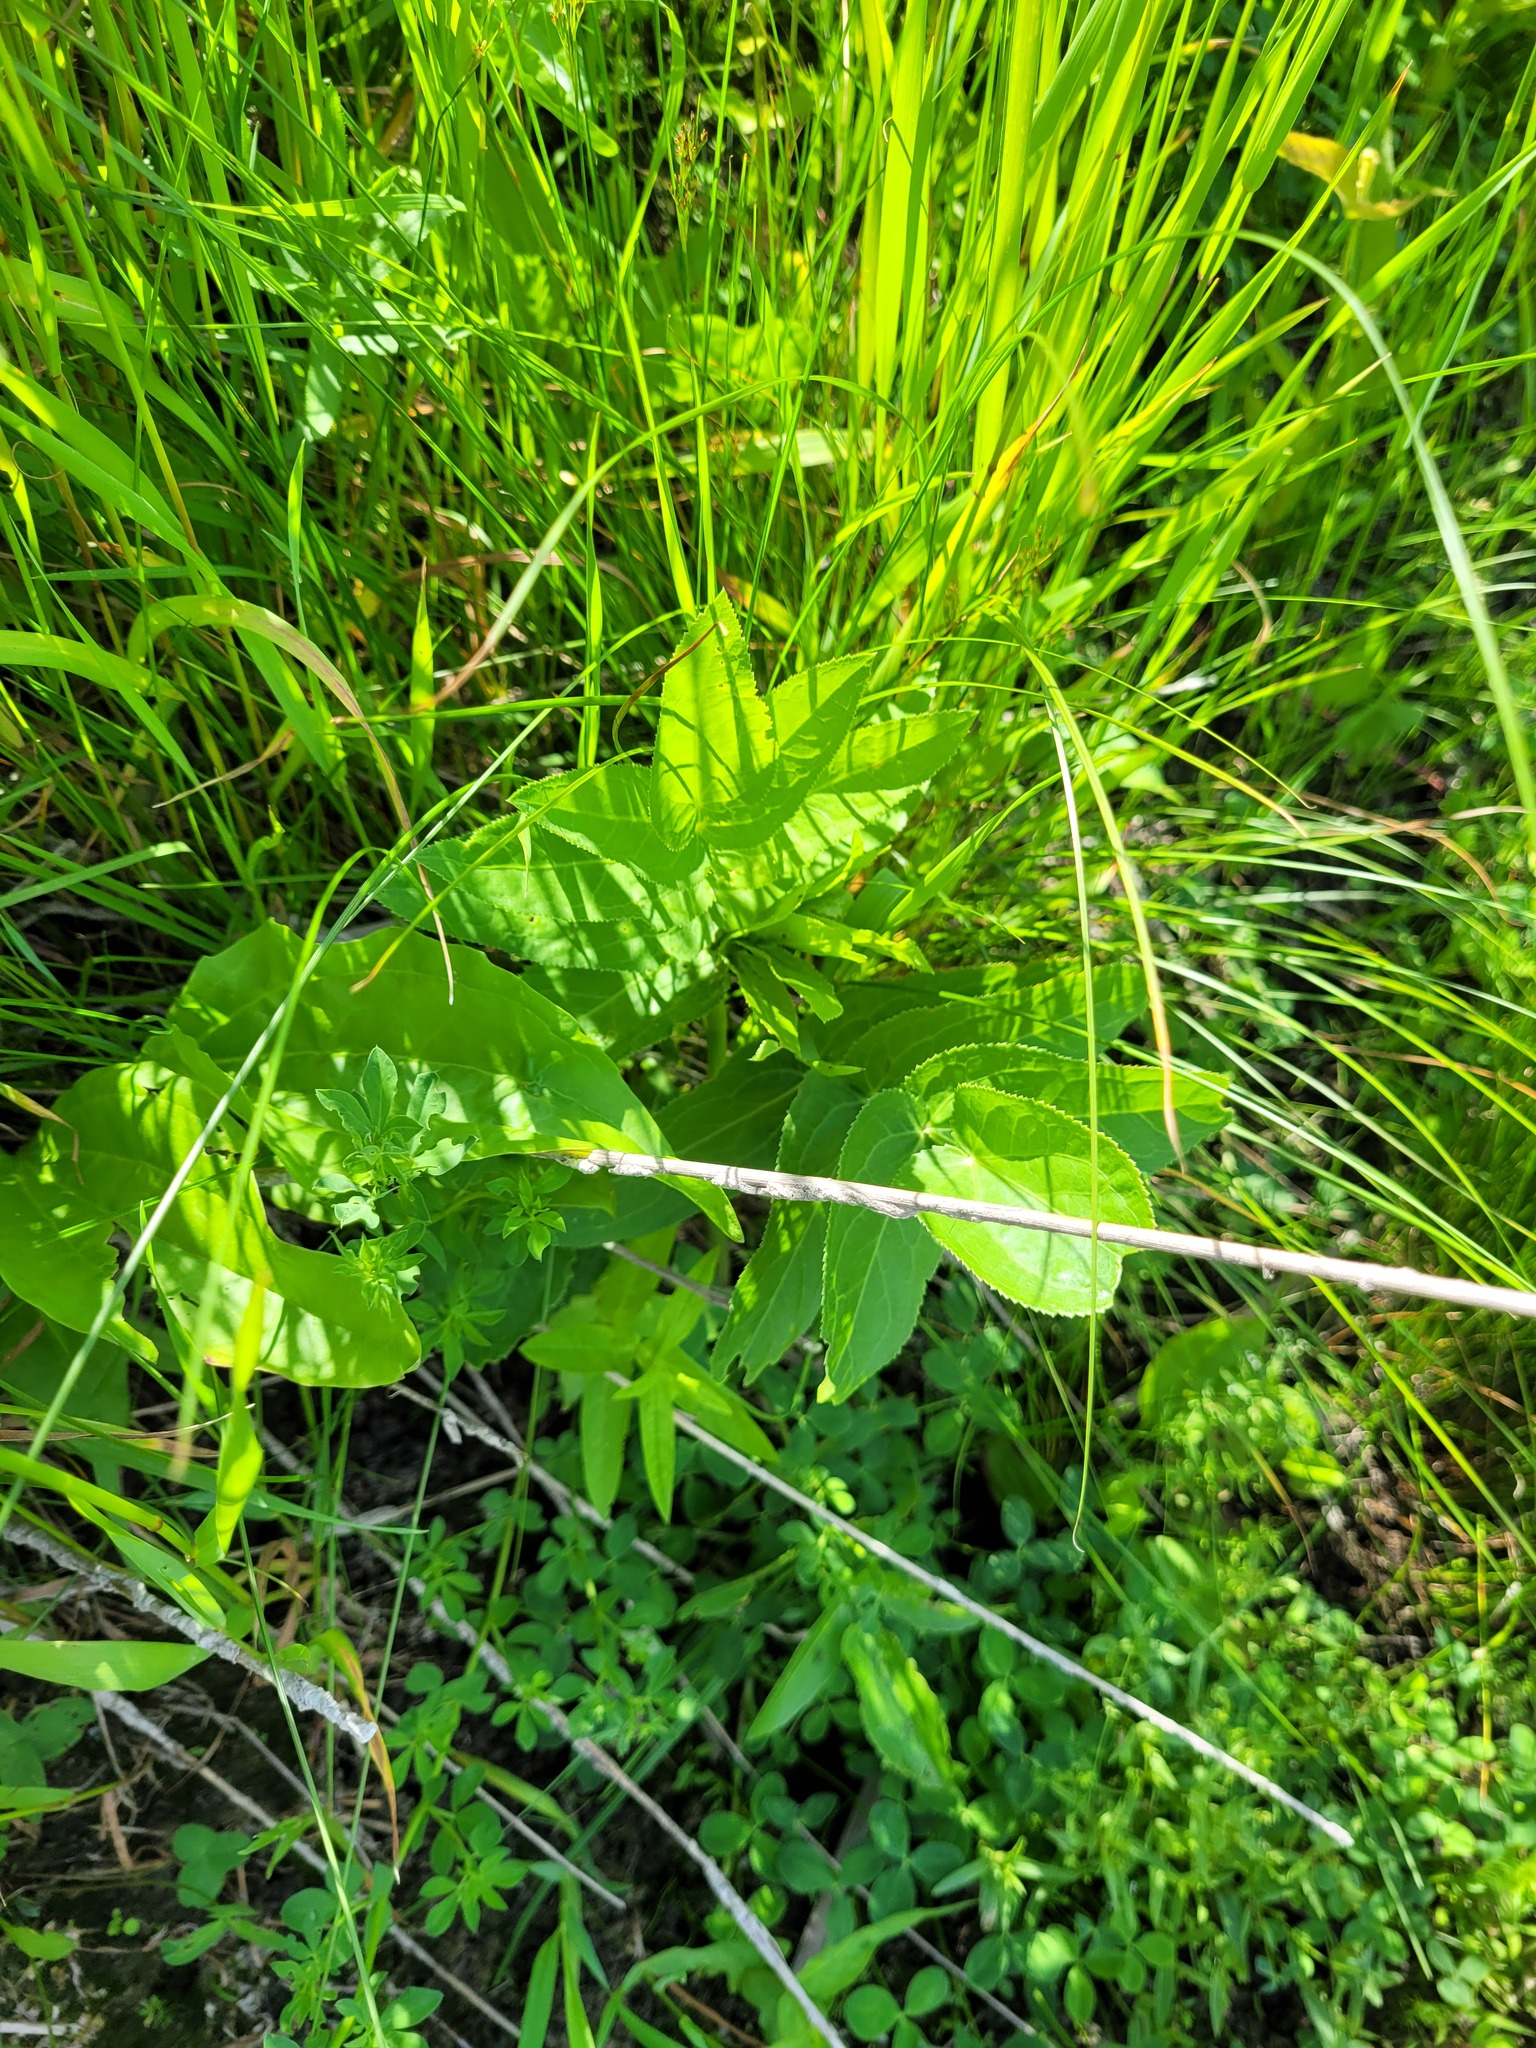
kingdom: Plantae
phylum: Tracheophyta
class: Magnoliopsida
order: Apiales
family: Apiaceae
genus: Sium
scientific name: Sium latifolium
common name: Greater water-parsnip
